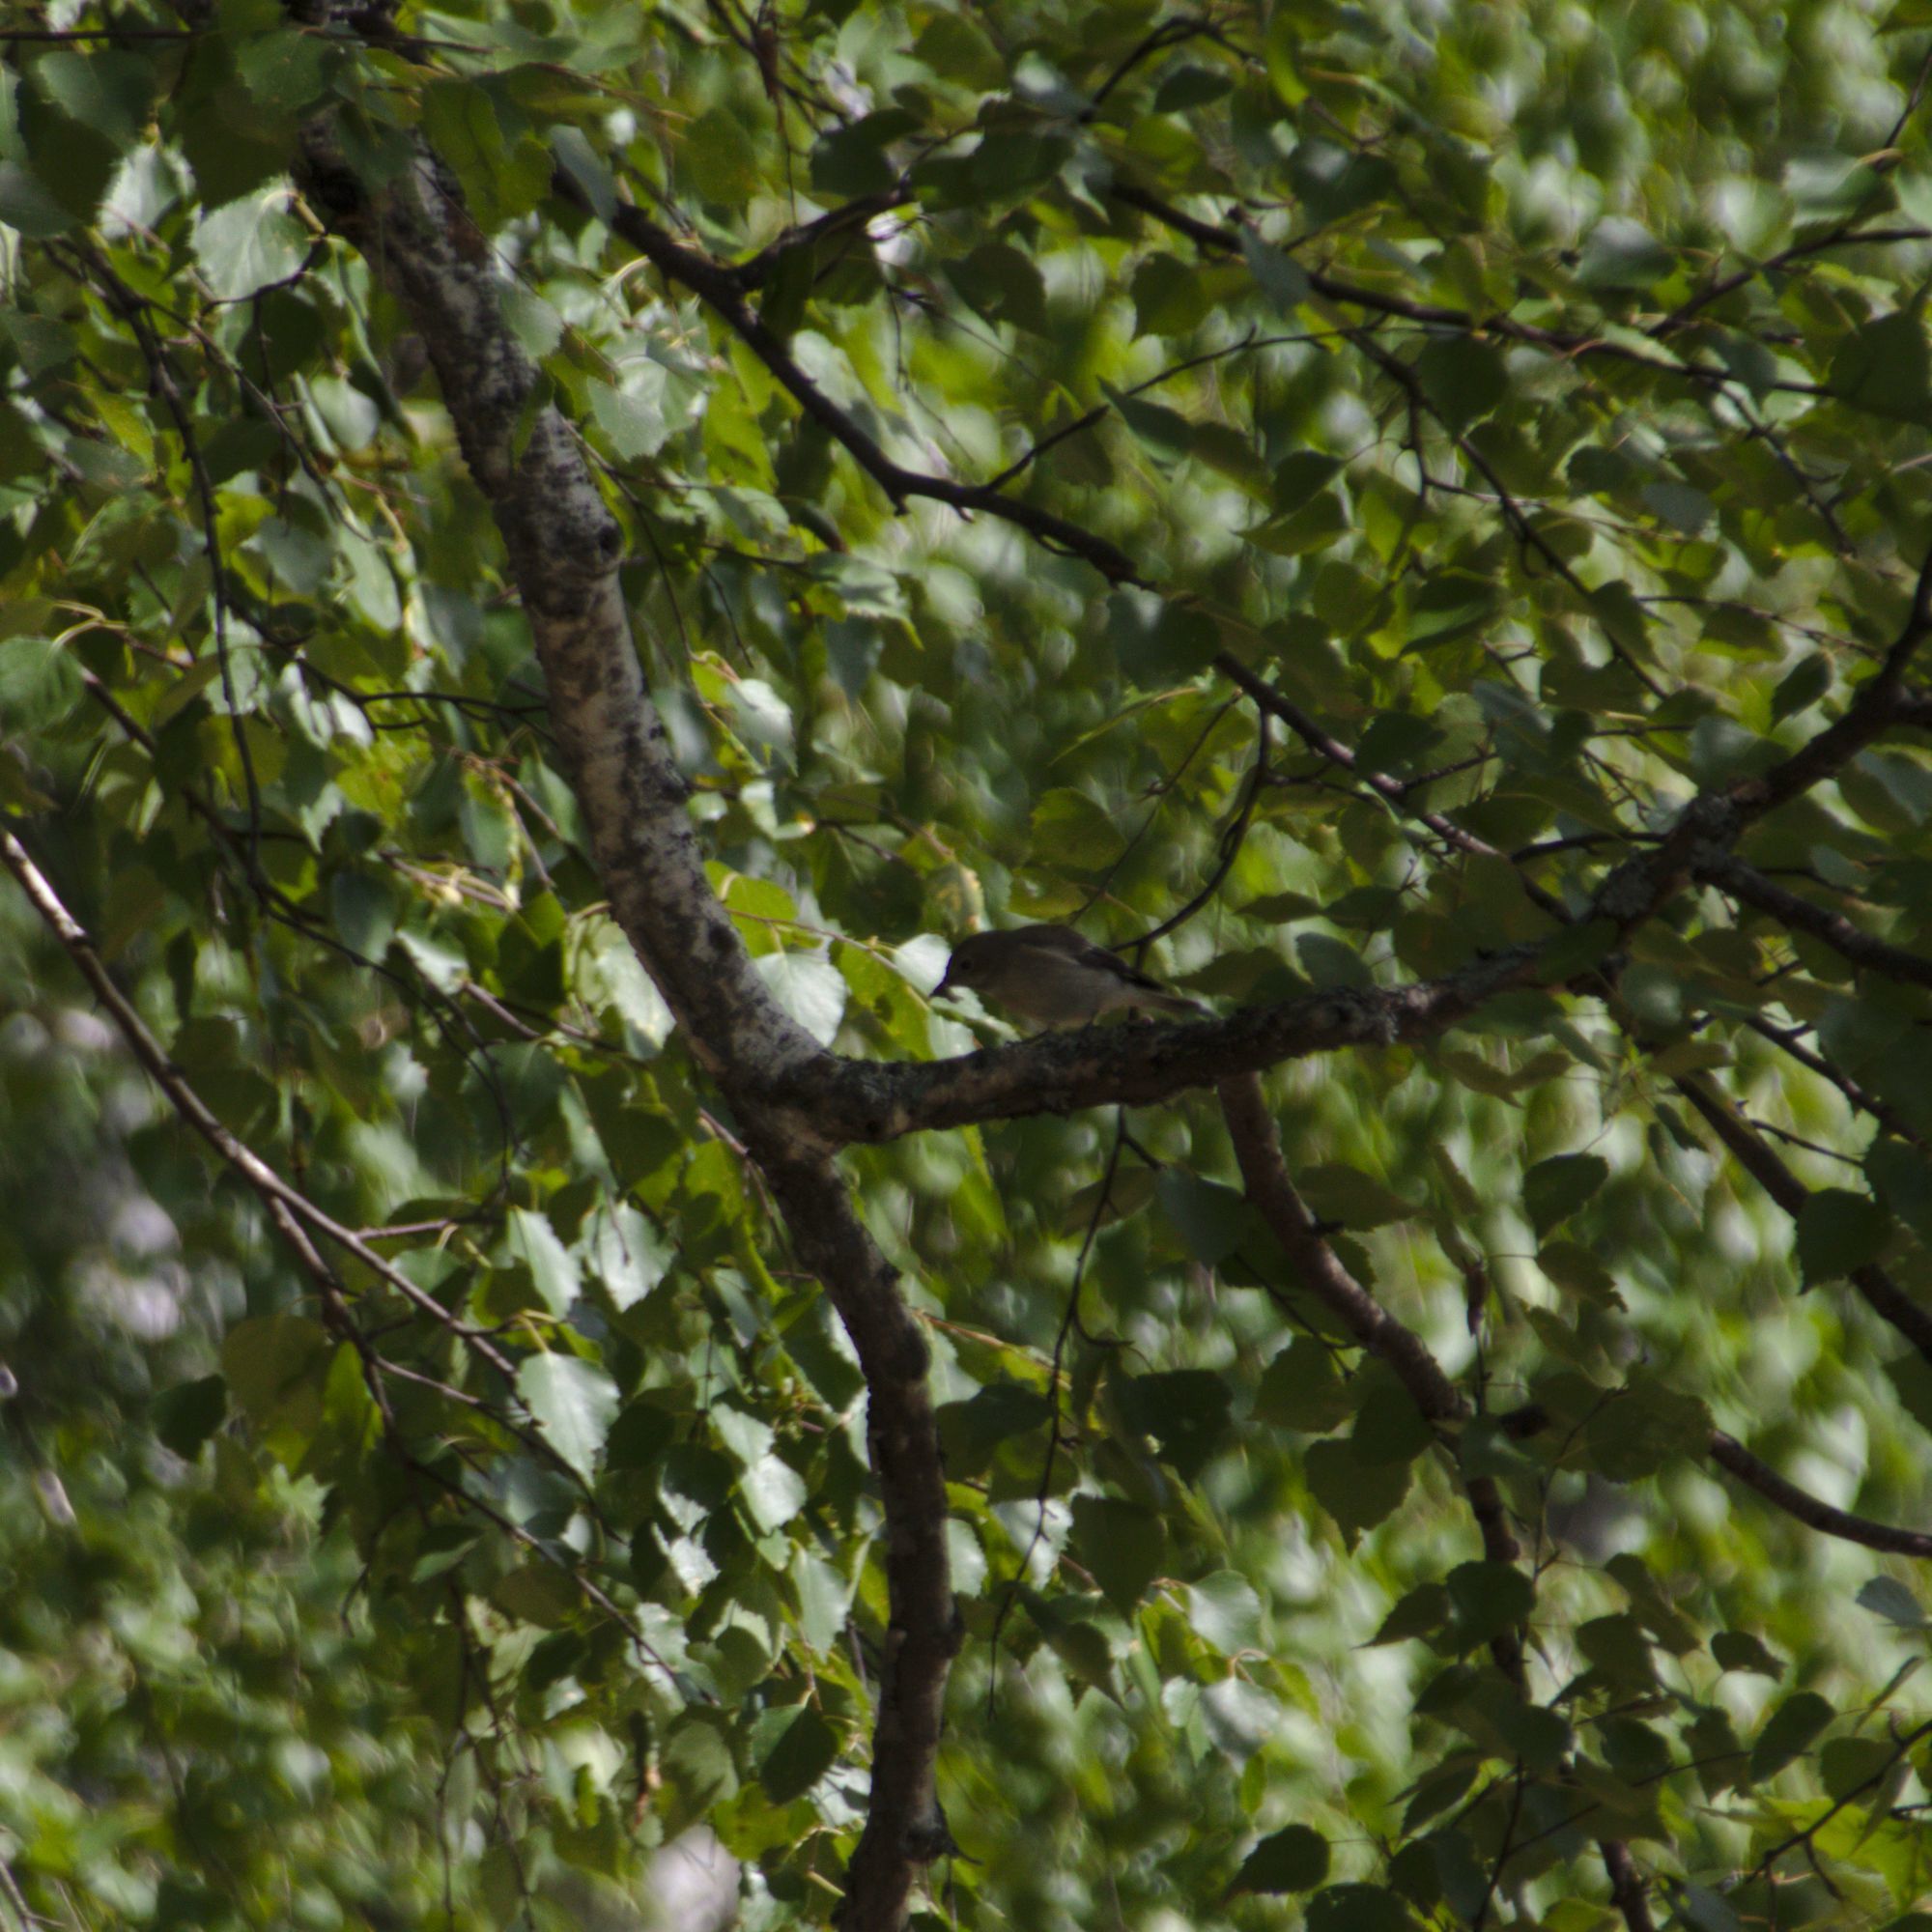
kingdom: Animalia
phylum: Chordata
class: Aves
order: Passeriformes
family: Muscicapidae
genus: Ficedula
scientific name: Ficedula hypoleuca
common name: European pied flycatcher
